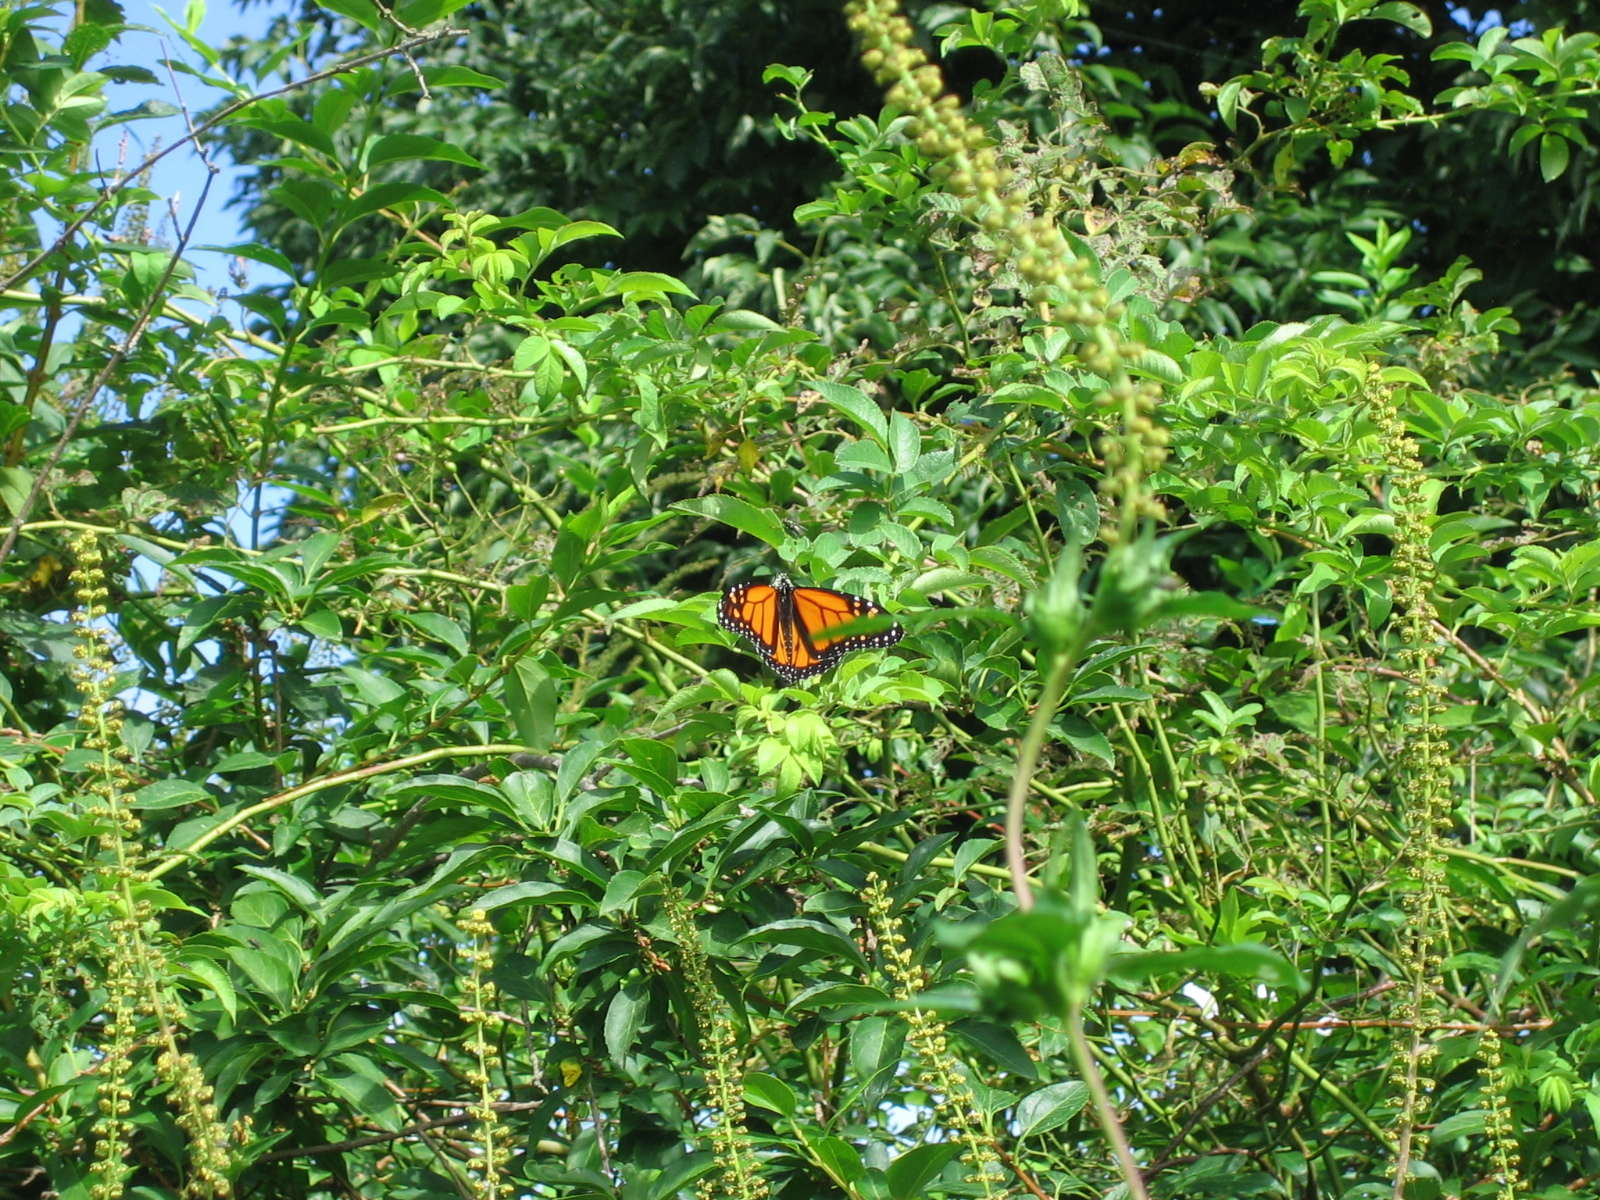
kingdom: Animalia
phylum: Arthropoda
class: Insecta
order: Lepidoptera
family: Nymphalidae
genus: Danaus
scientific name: Danaus plexippus
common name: Monarch
